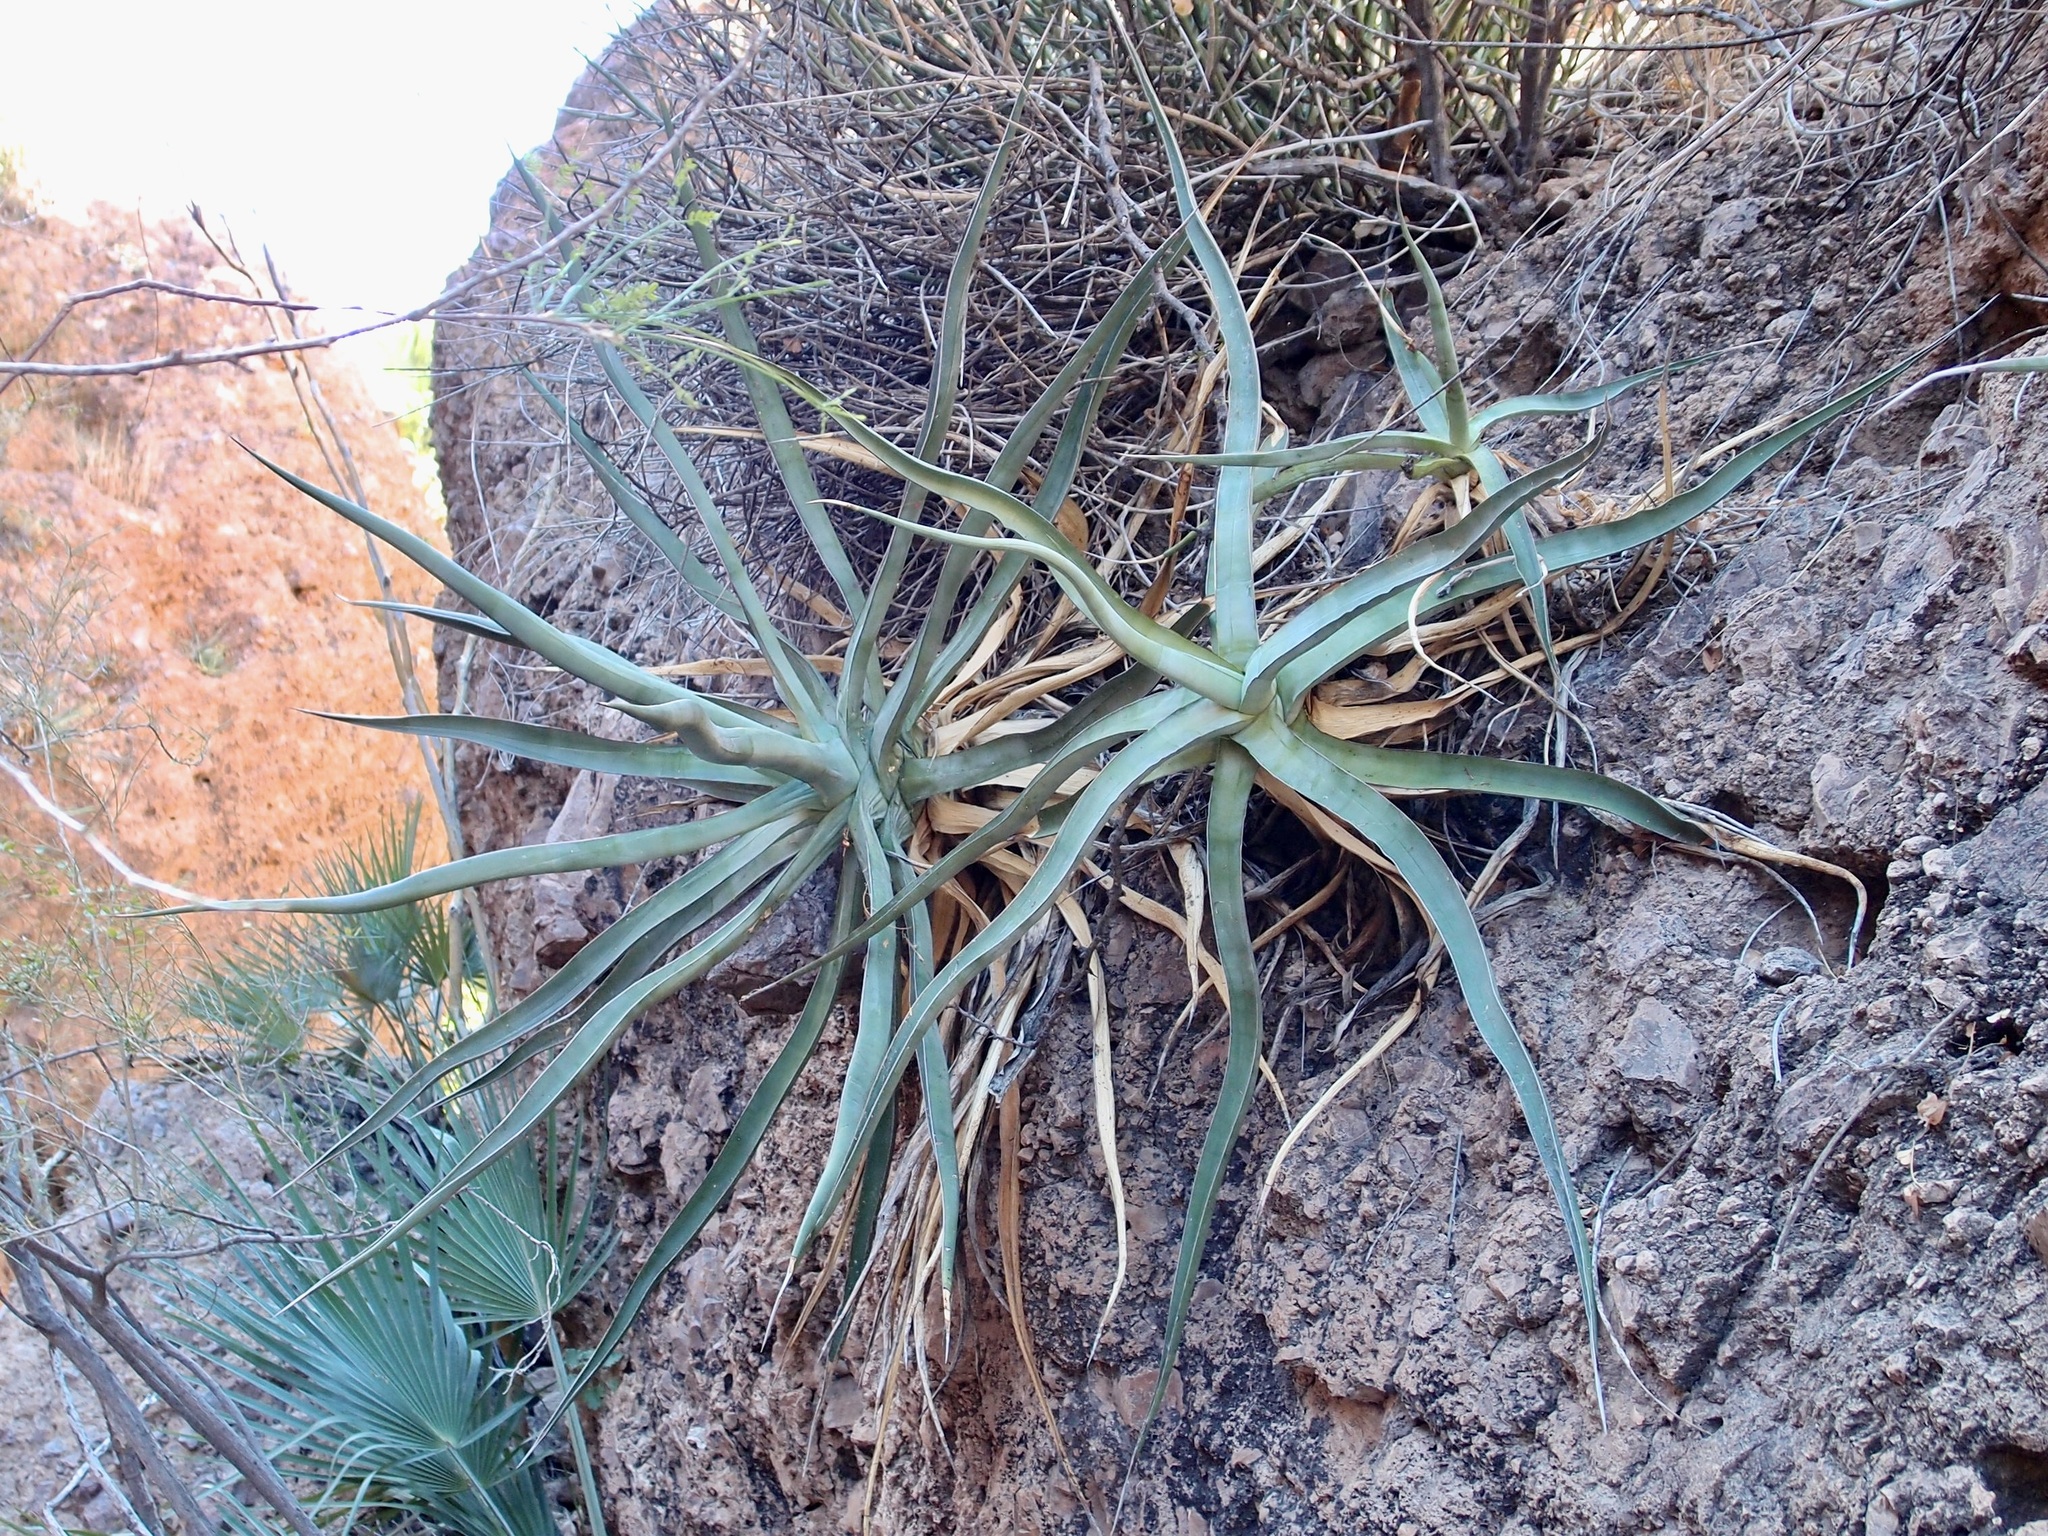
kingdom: Plantae
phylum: Tracheophyta
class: Liliopsida
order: Asparagales
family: Asparagaceae
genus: Agave
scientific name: Agave chrysoglossa
